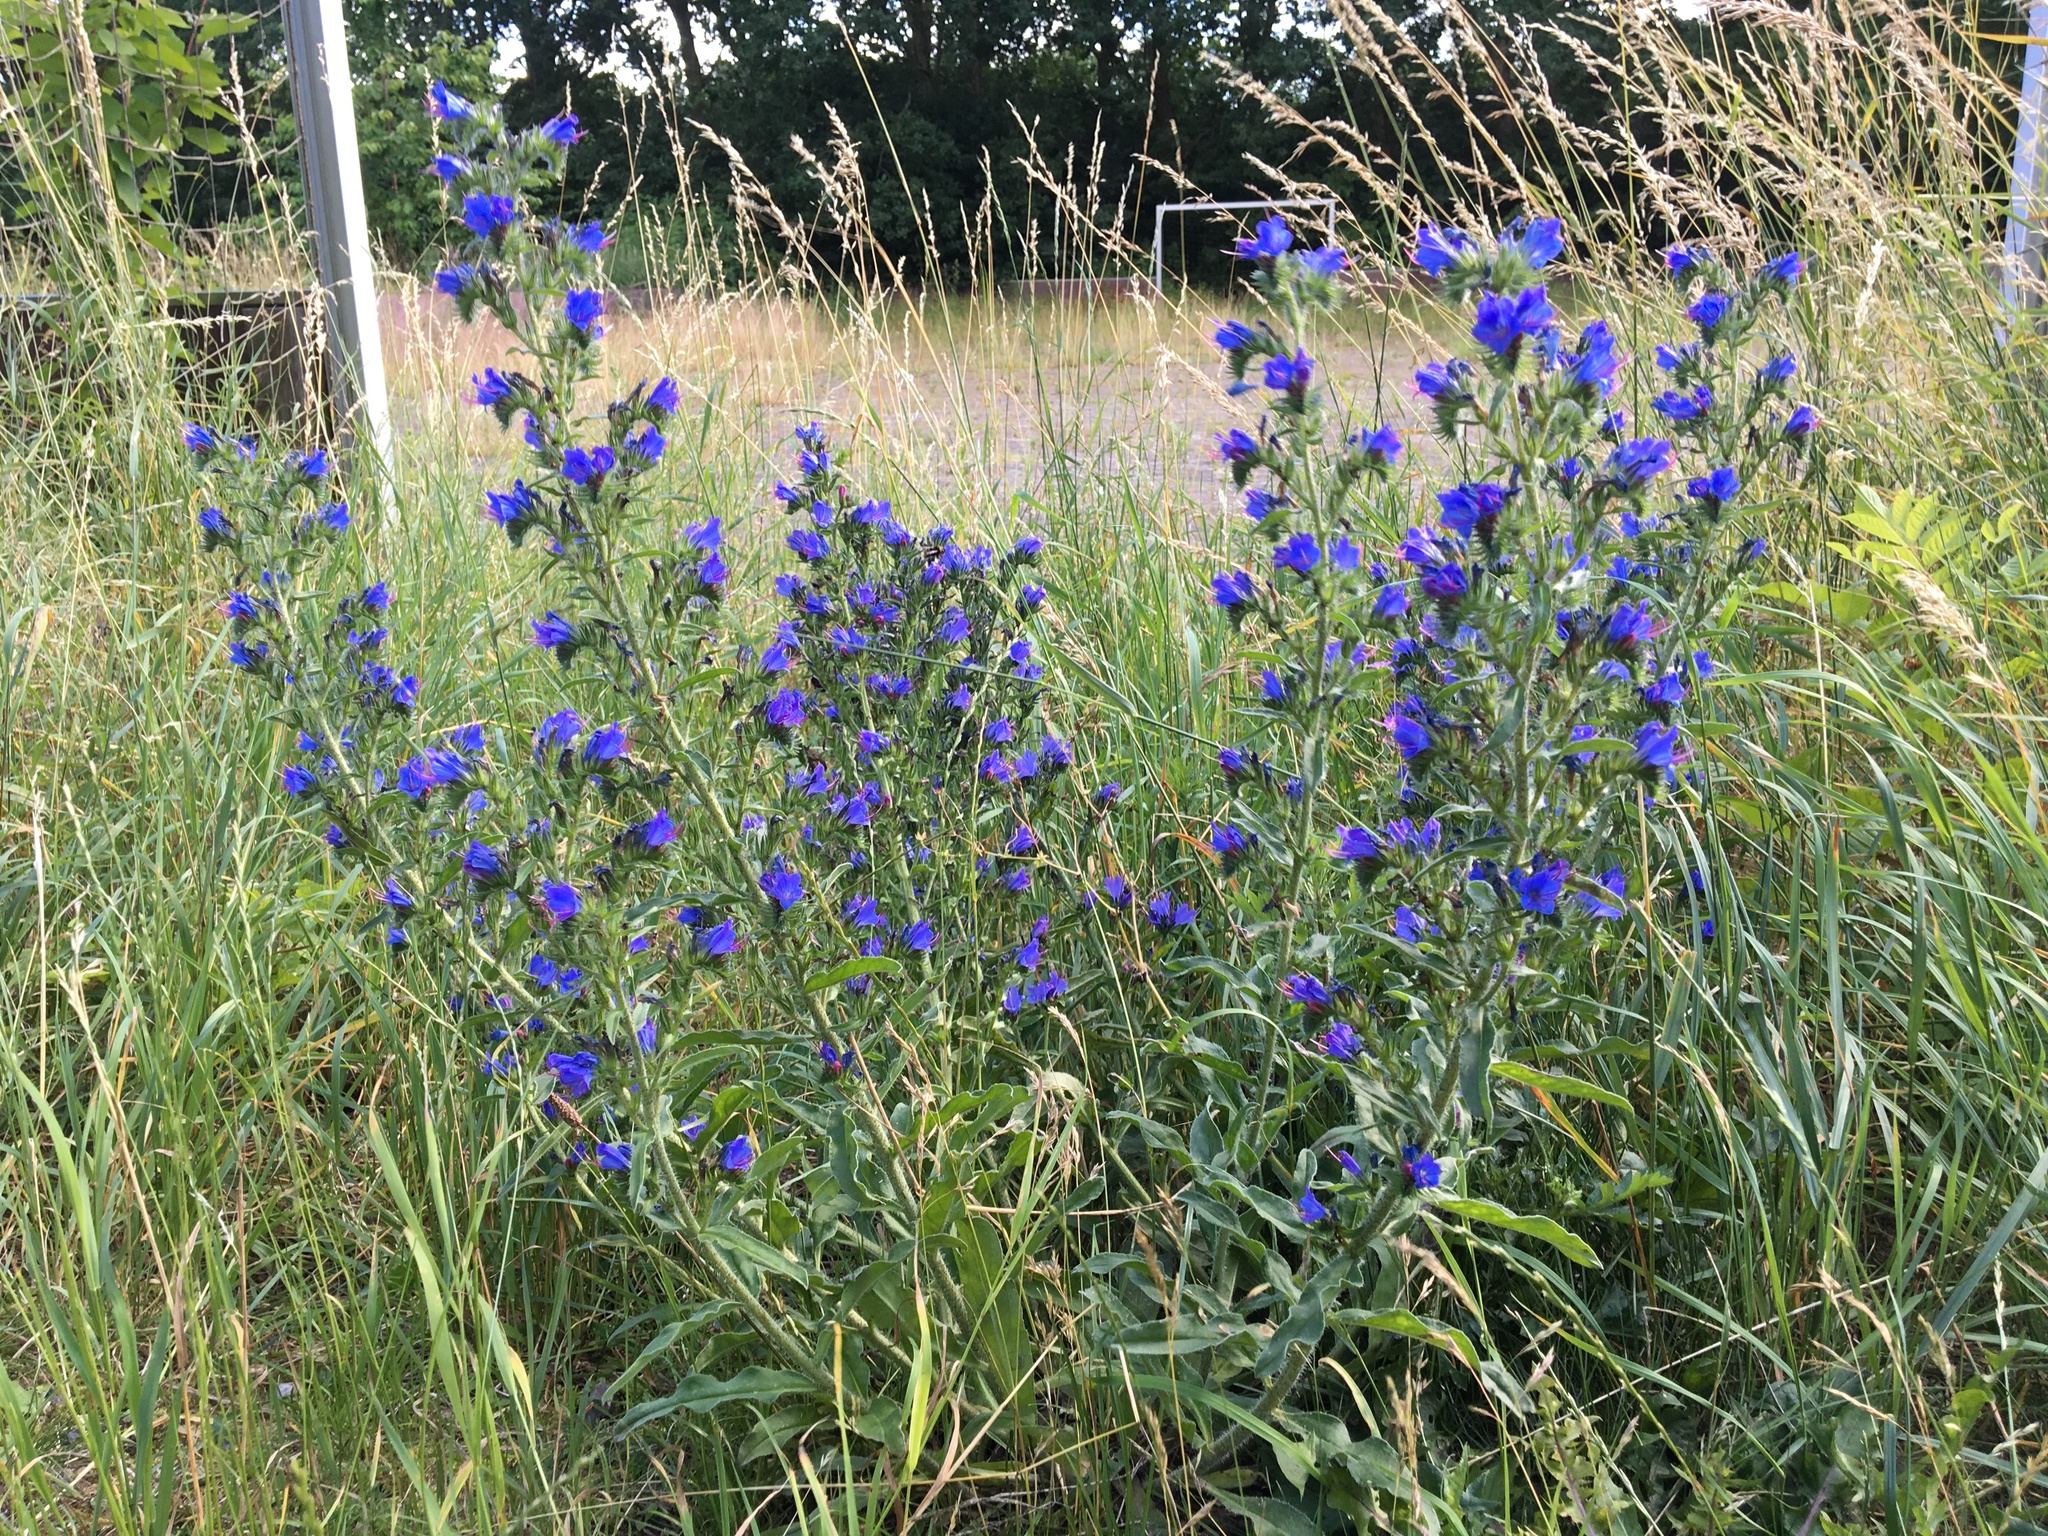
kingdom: Plantae
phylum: Tracheophyta
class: Magnoliopsida
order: Boraginales
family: Boraginaceae
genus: Echium
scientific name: Echium vulgare
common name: Common viper's bugloss
